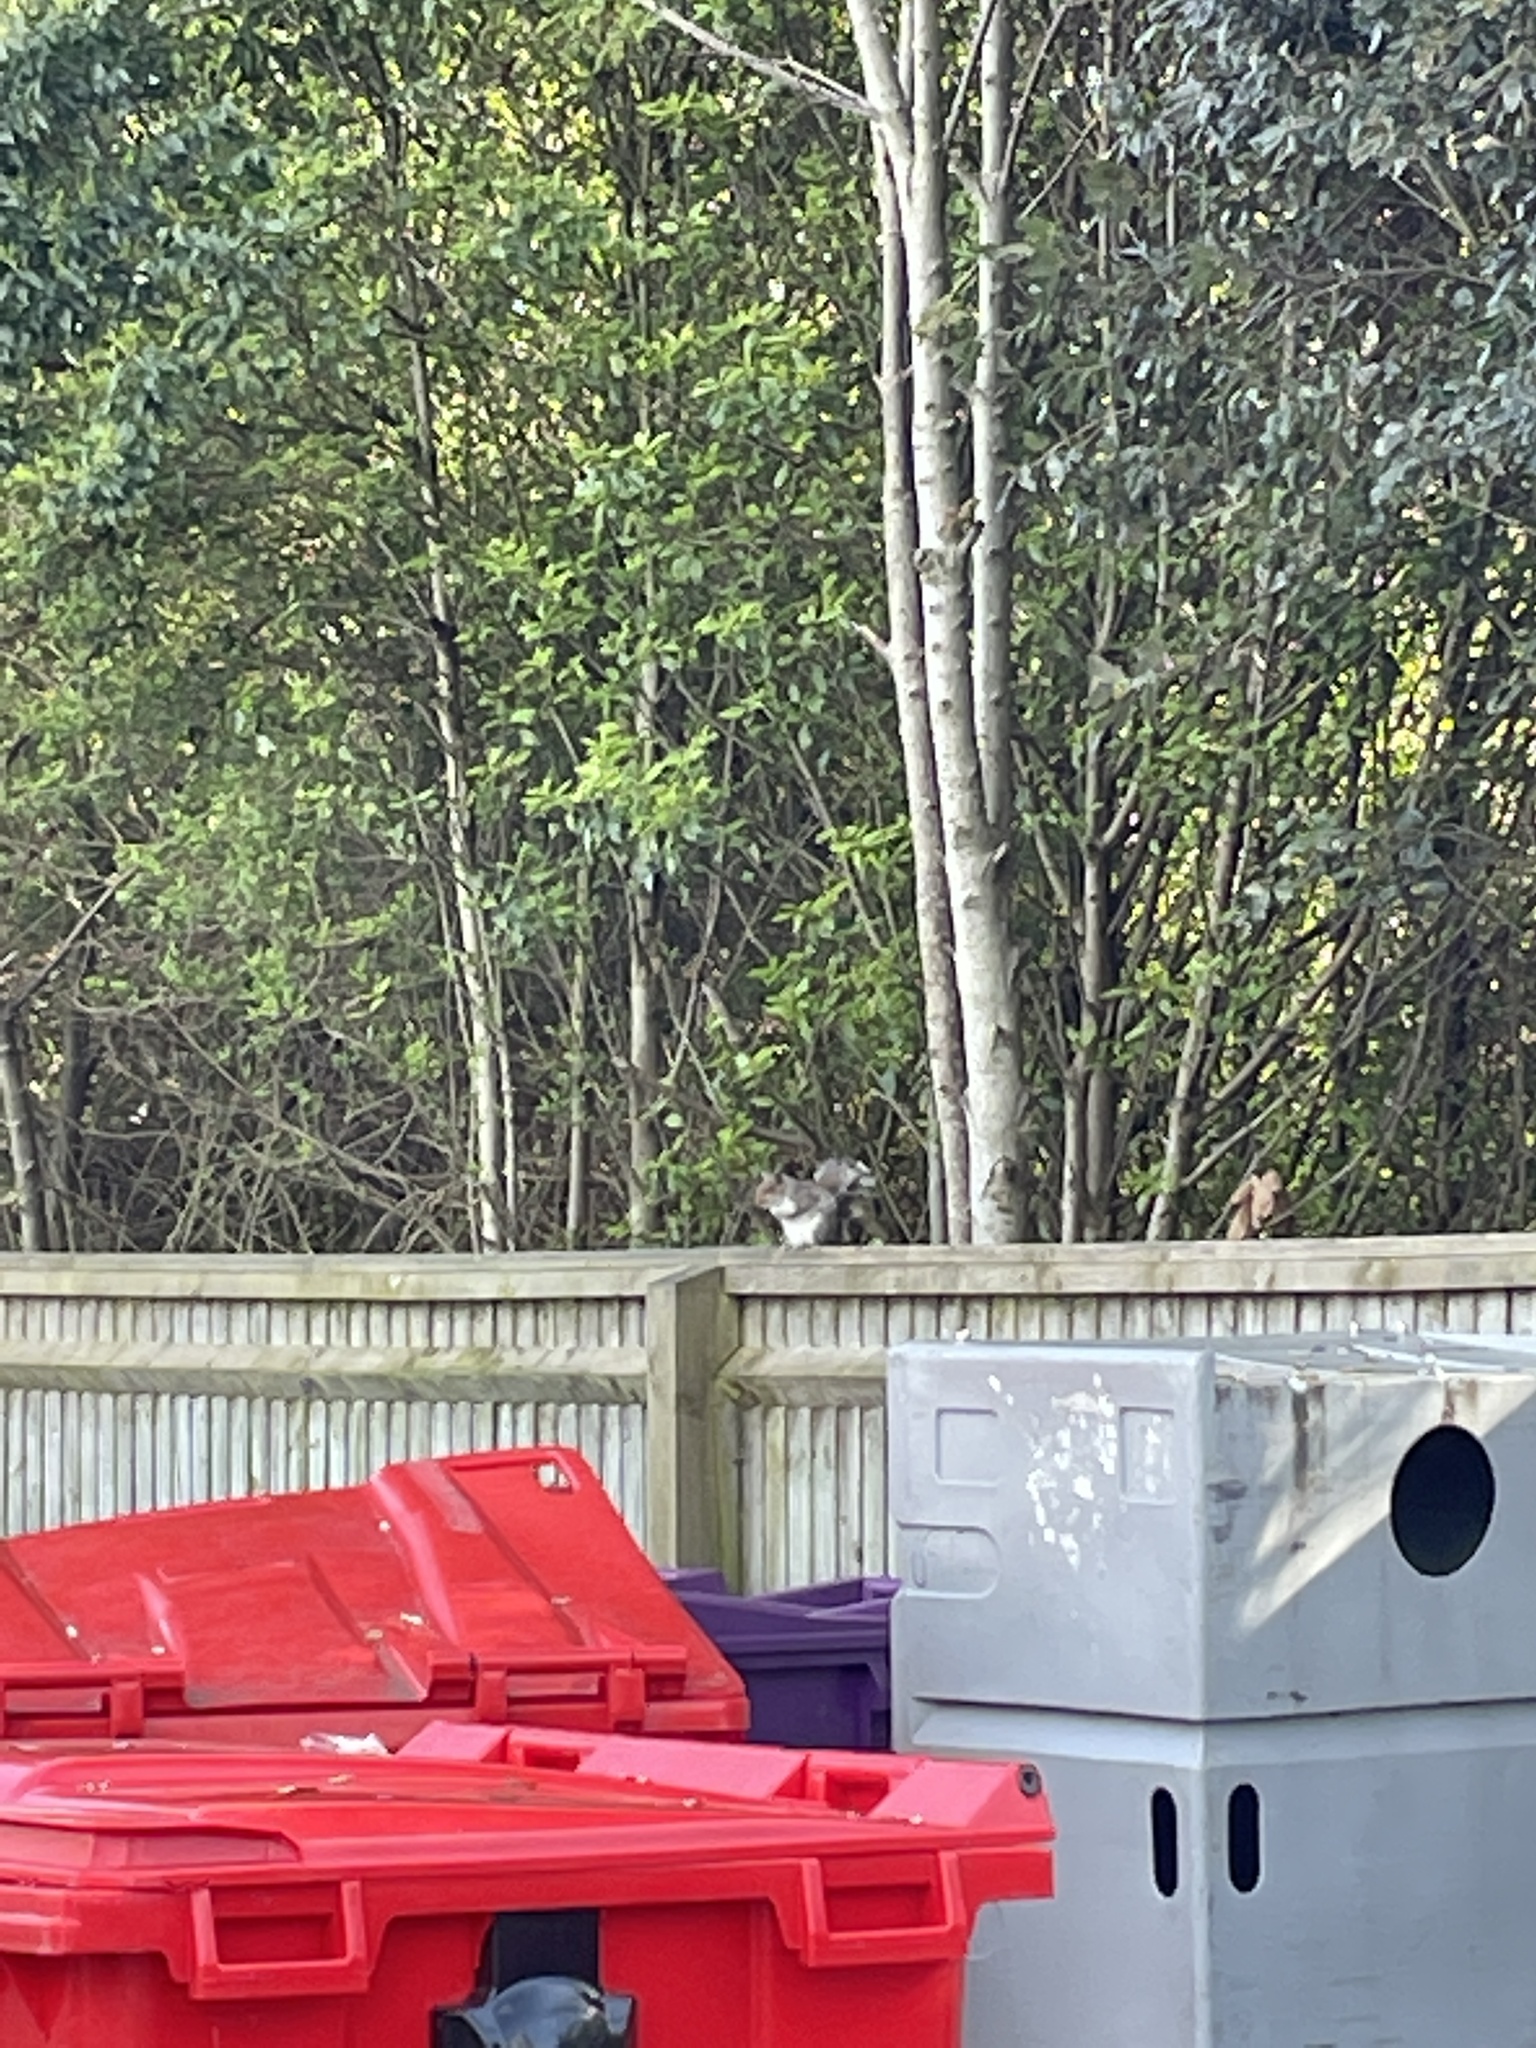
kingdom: Animalia
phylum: Chordata
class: Mammalia
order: Rodentia
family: Sciuridae
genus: Sciurus
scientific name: Sciurus carolinensis
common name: Eastern gray squirrel
